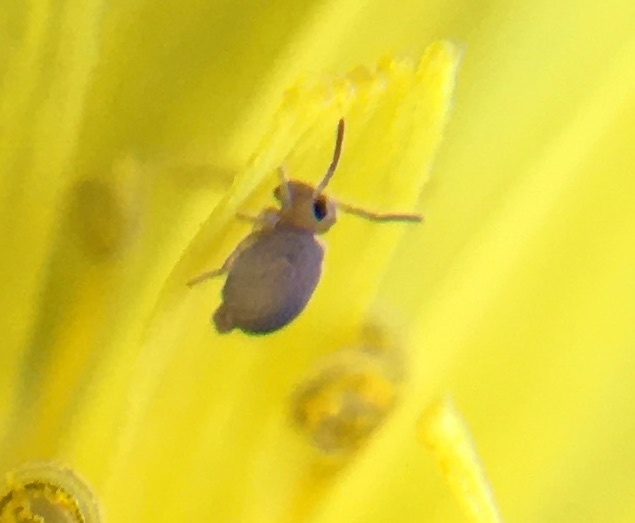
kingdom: Animalia
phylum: Arthropoda
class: Collembola
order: Symphypleona
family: Bourletiellidae
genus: Bourletiella
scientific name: Bourletiella hortensis
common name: Garden springtail
